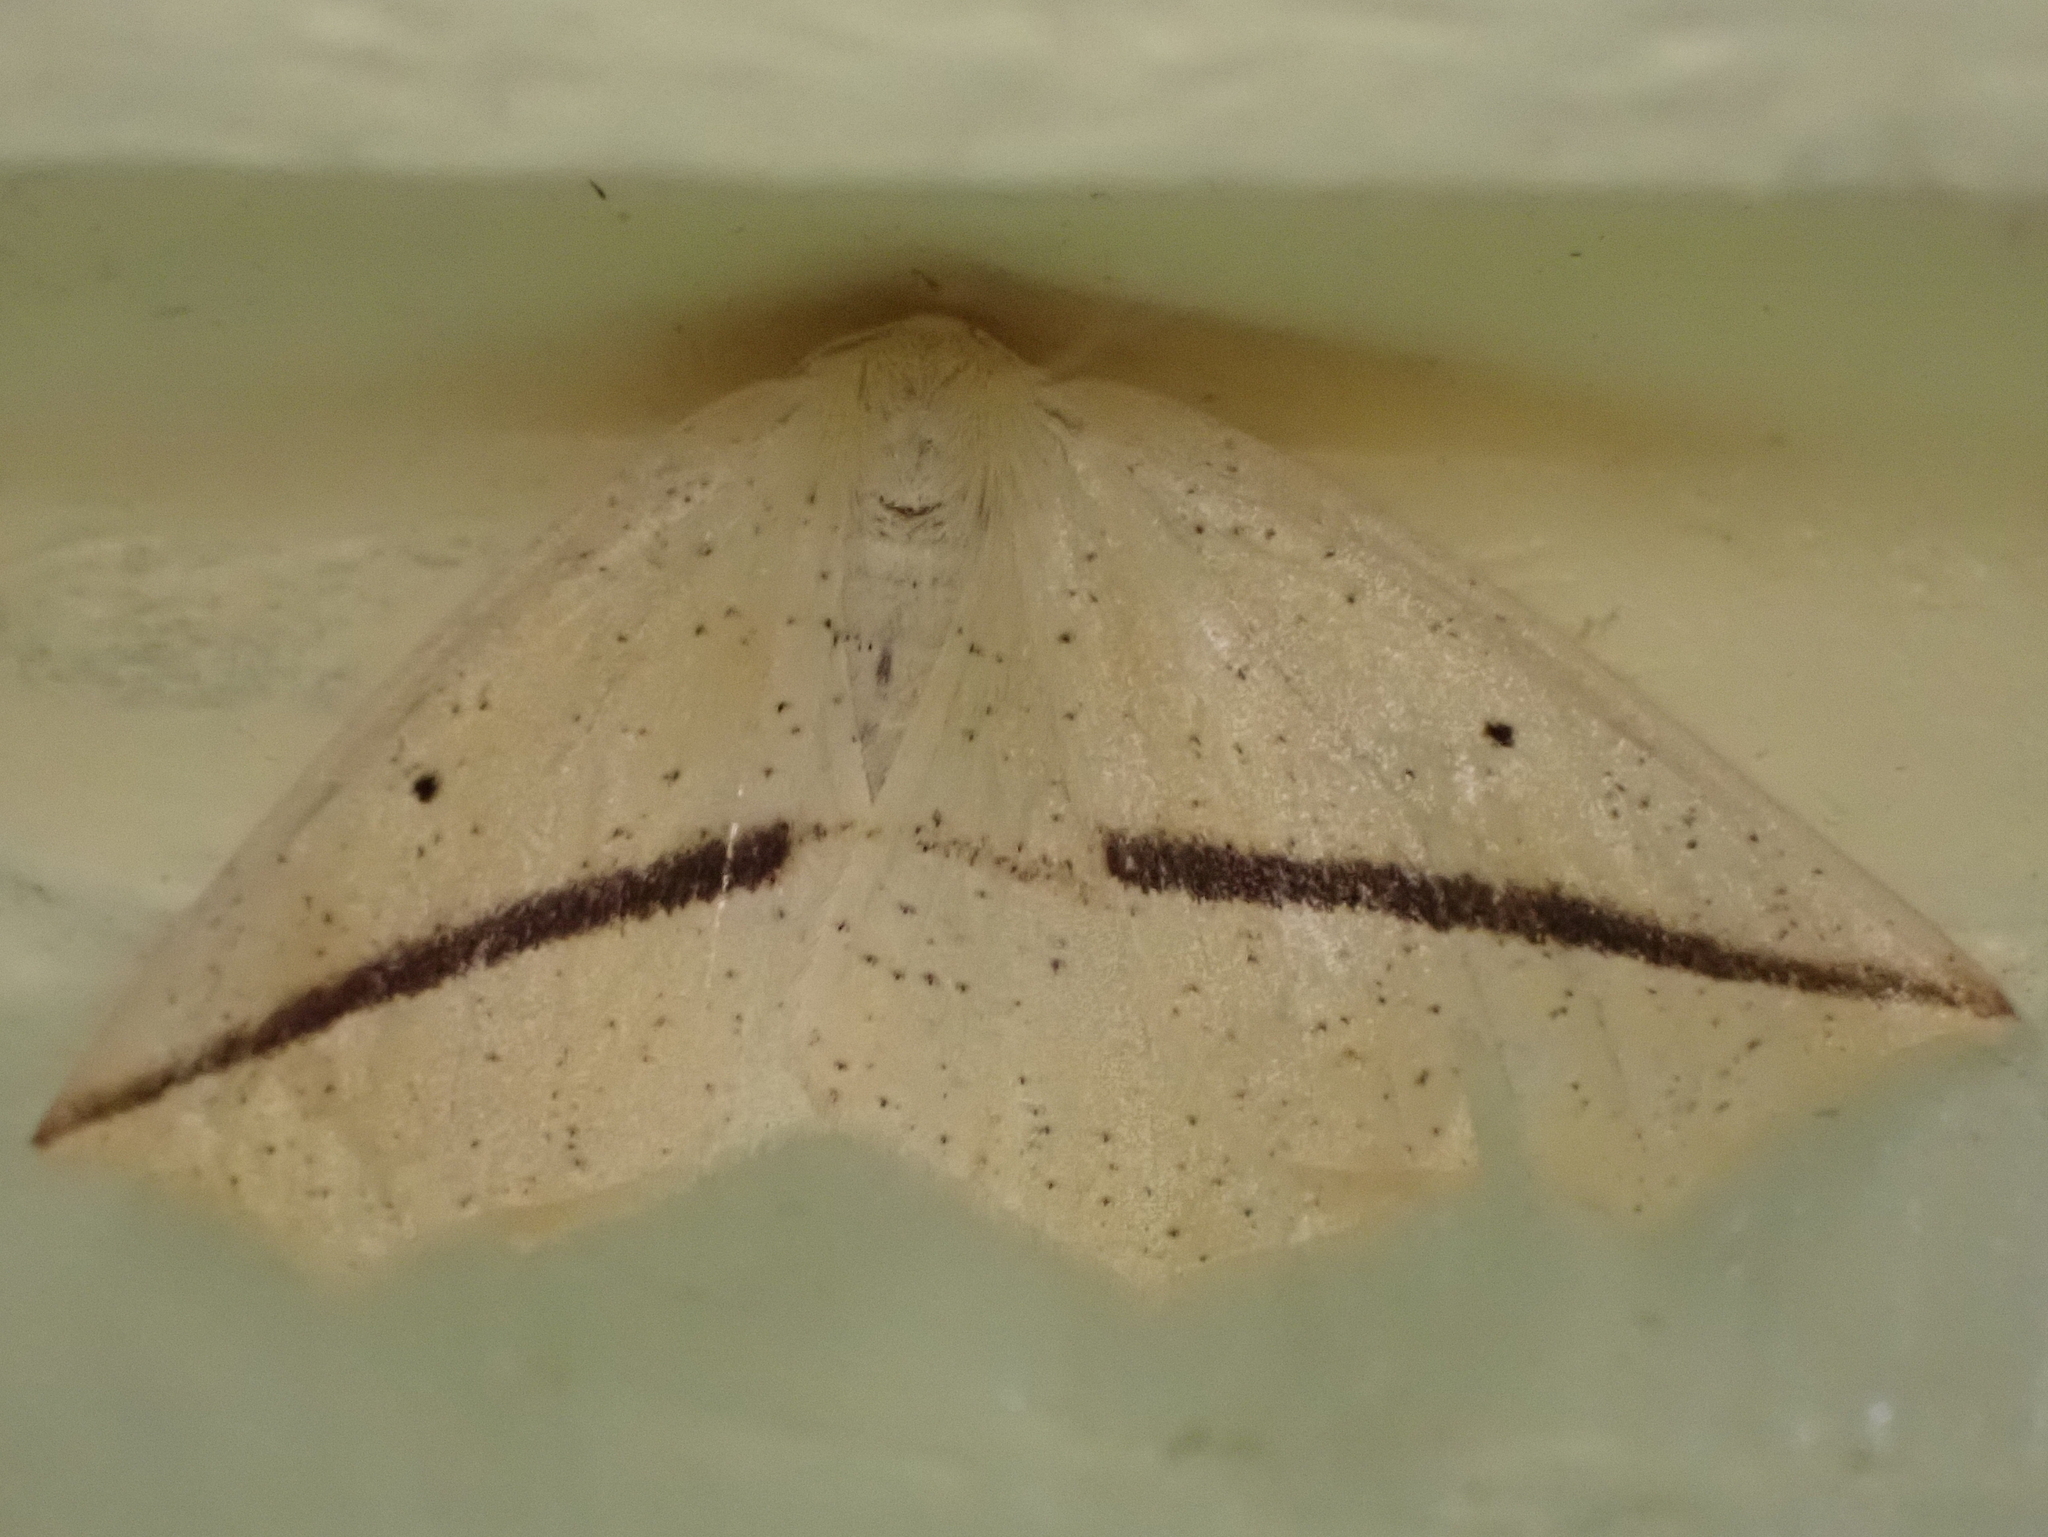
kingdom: Animalia
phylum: Arthropoda
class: Insecta
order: Lepidoptera
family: Geometridae
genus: Tetracis
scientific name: Tetracis crocallata
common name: Yellow slant-line
